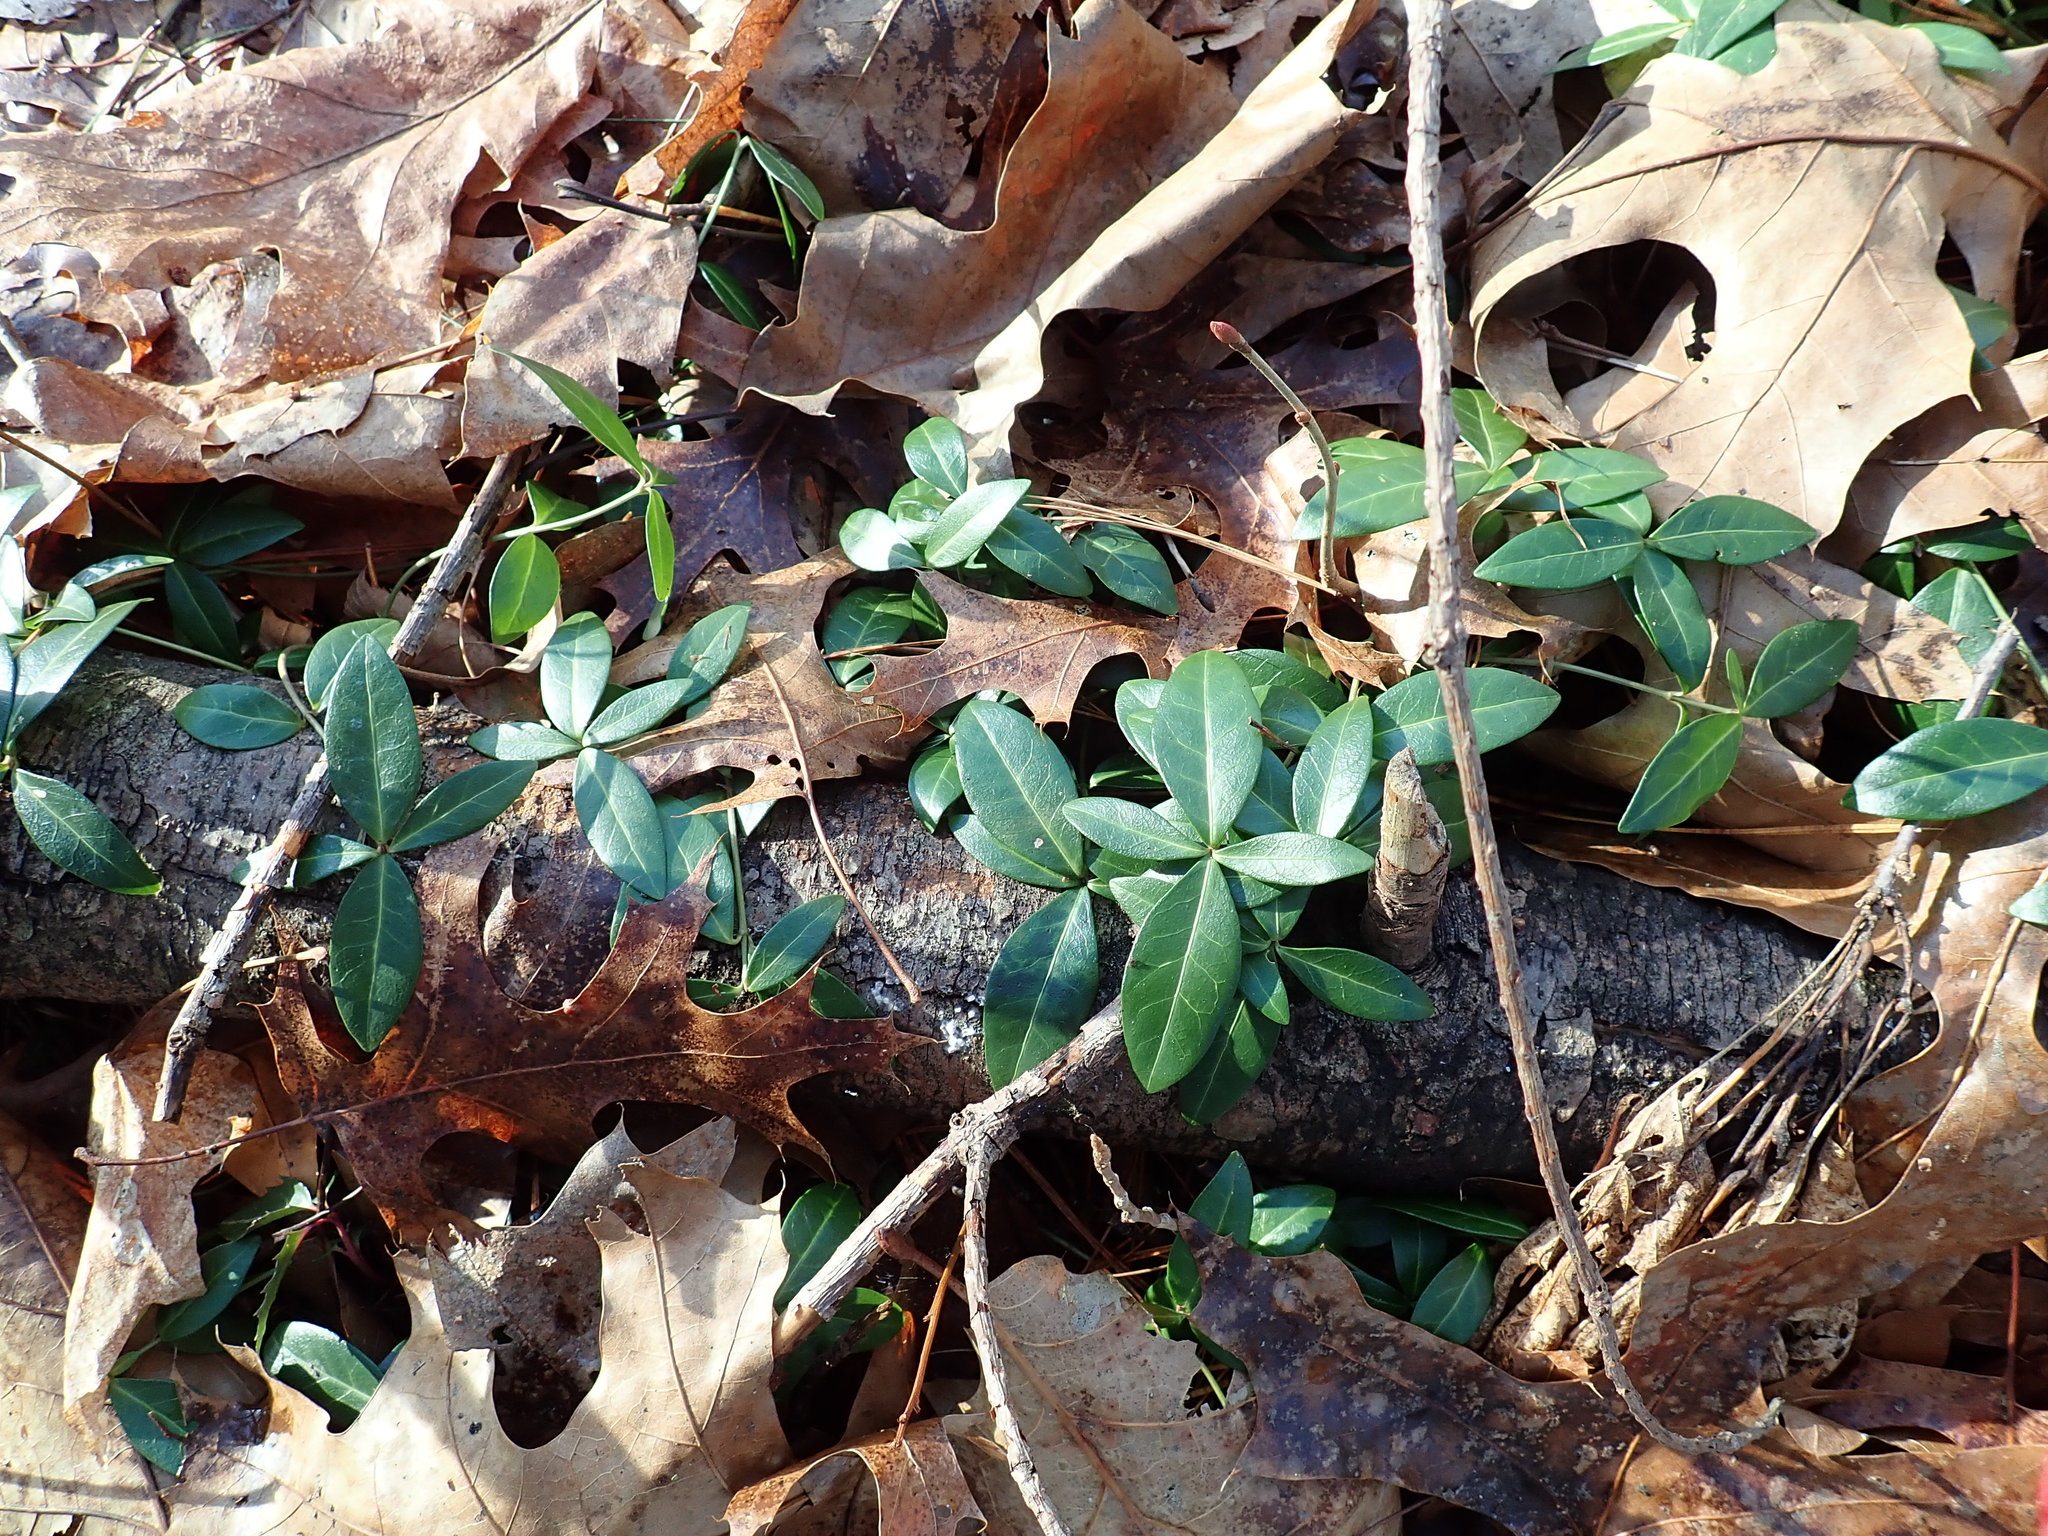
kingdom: Plantae
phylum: Tracheophyta
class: Magnoliopsida
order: Gentianales
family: Apocynaceae
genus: Vinca
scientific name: Vinca minor
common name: Lesser periwinkle
